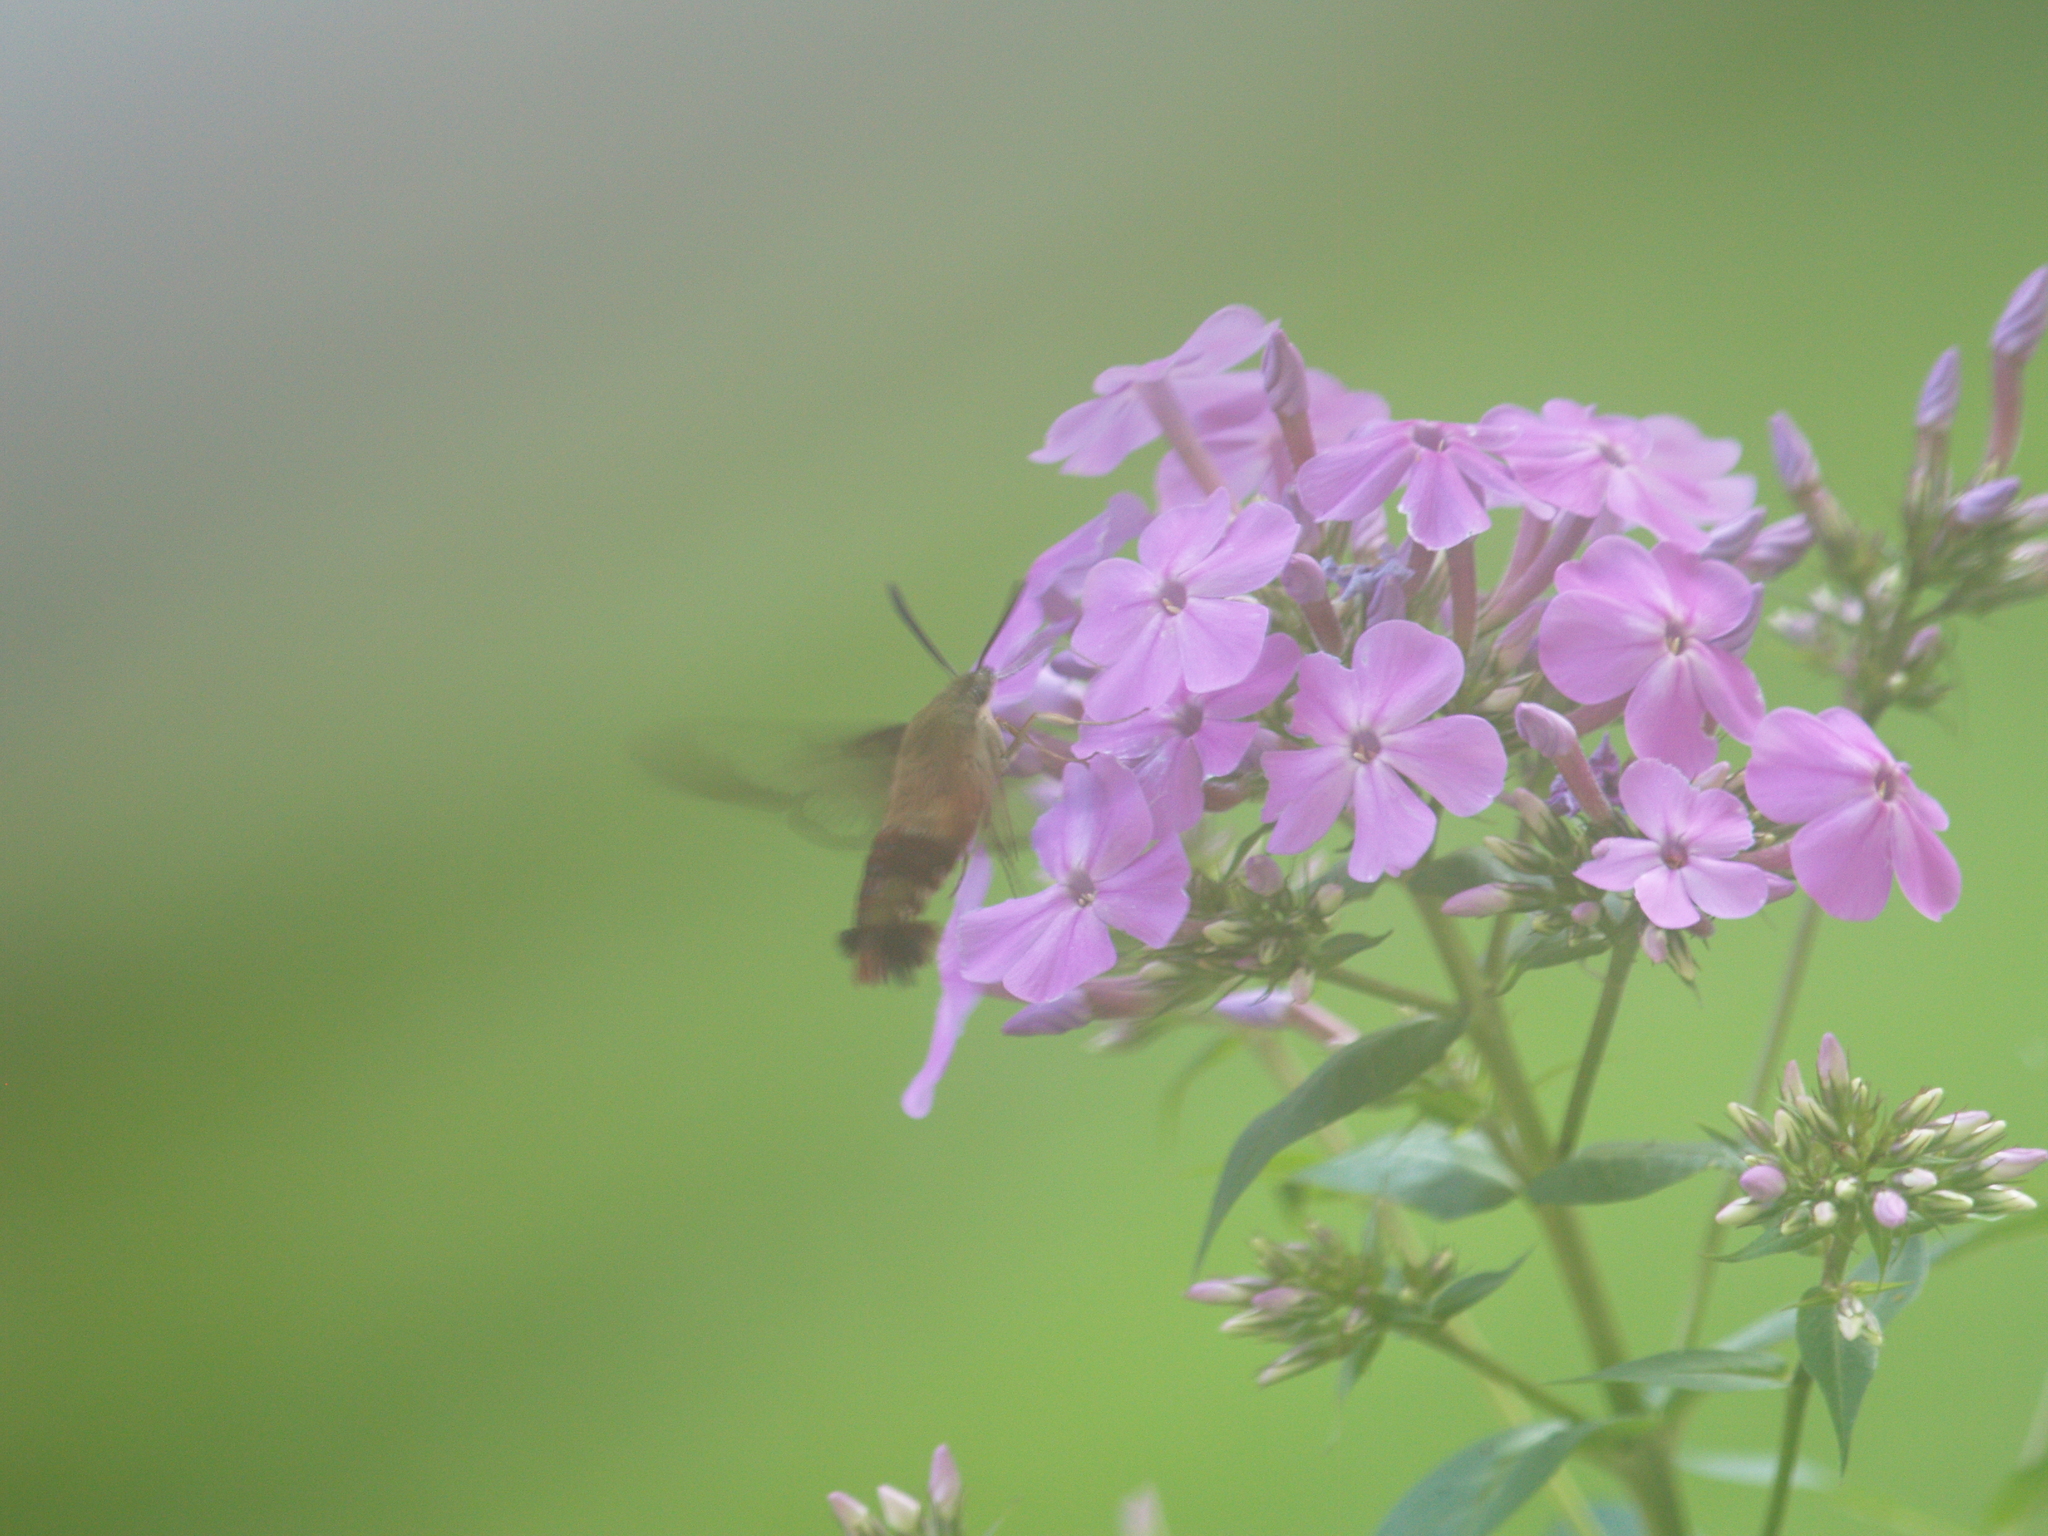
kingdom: Animalia
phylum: Arthropoda
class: Insecta
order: Lepidoptera
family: Sphingidae
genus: Hemaris
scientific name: Hemaris thysbe
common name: Common clear-wing
